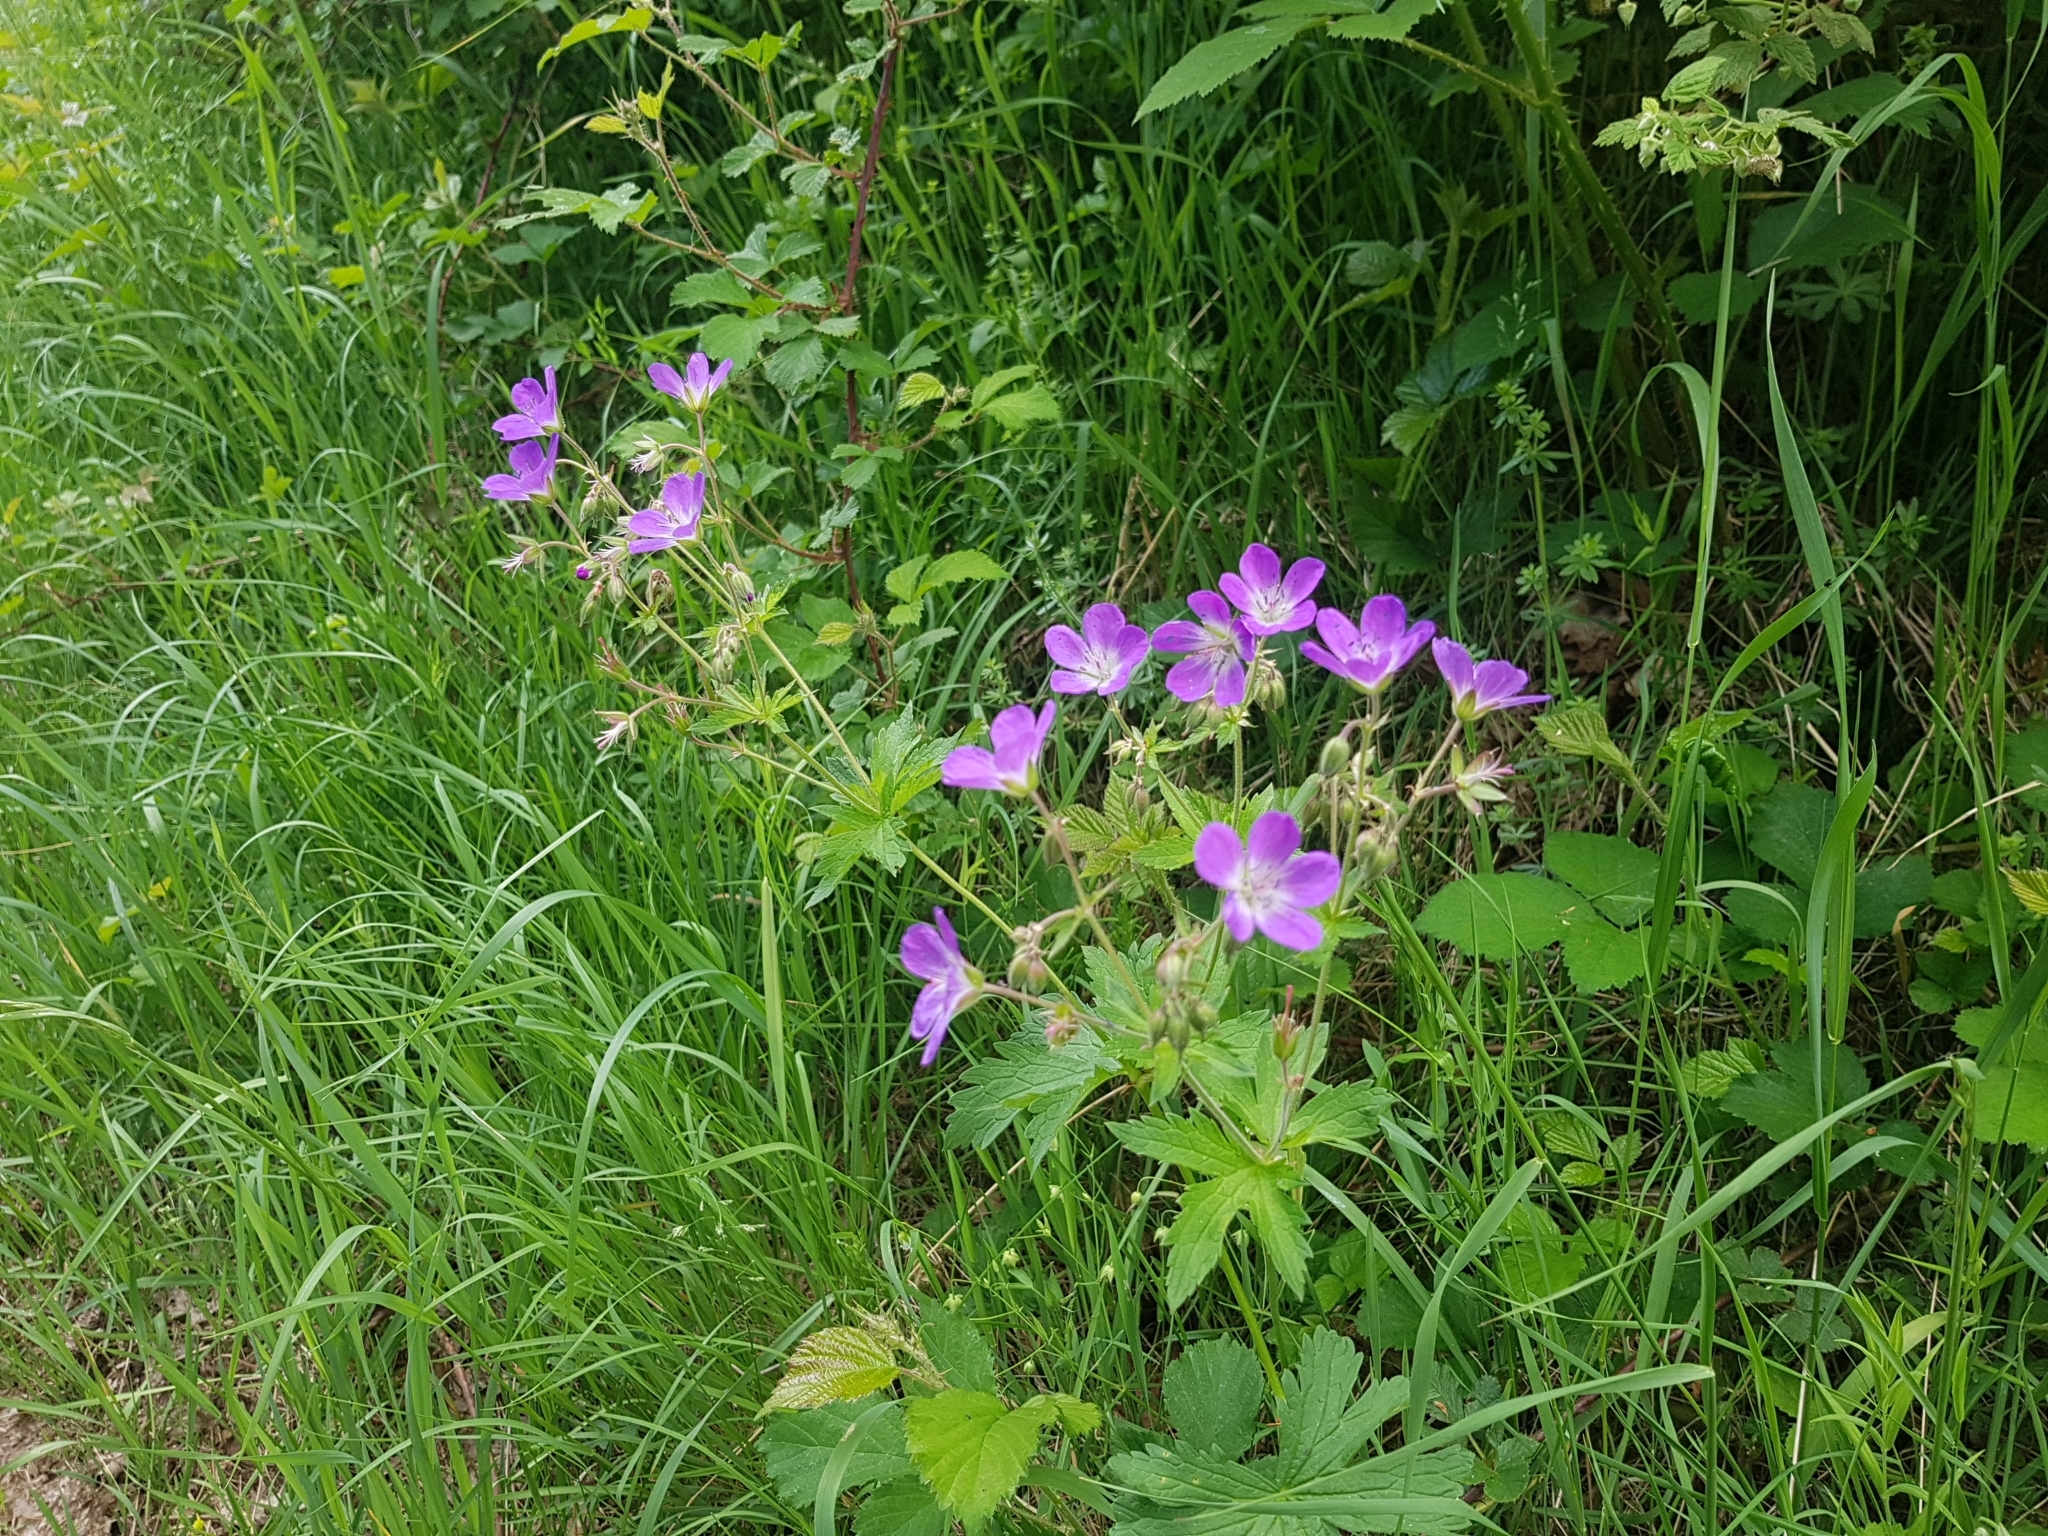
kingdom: Plantae
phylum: Tracheophyta
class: Magnoliopsida
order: Geraniales
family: Geraniaceae
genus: Geranium
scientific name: Geranium sylvaticum
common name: Wood crane's-bill
